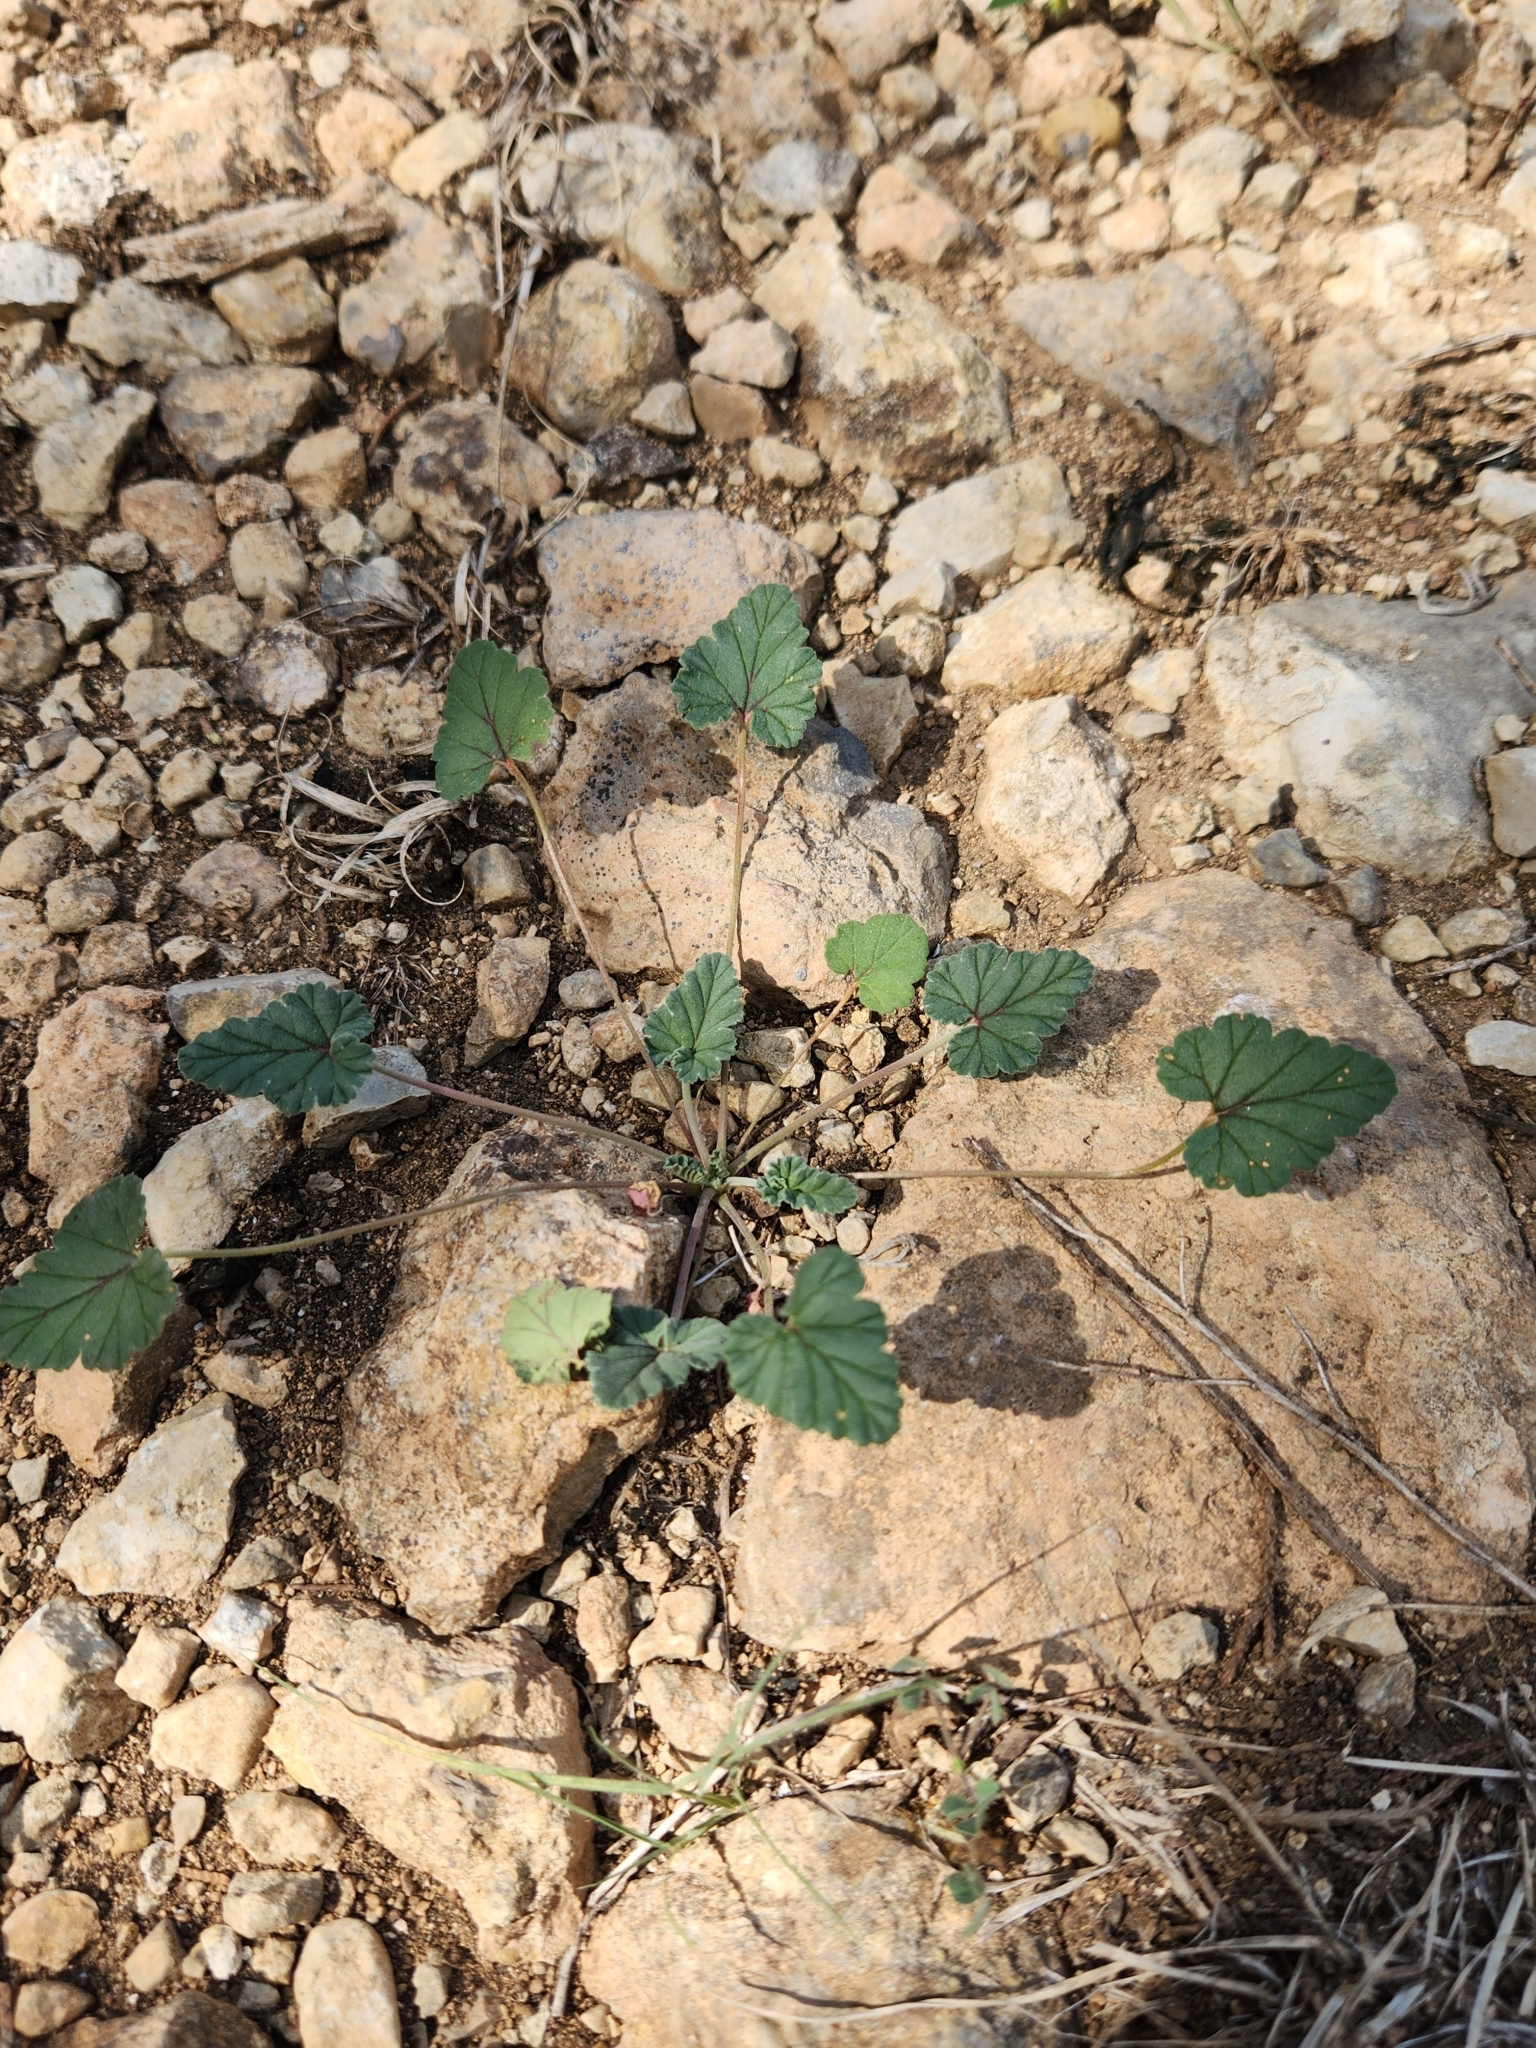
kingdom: Plantae
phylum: Tracheophyta
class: Magnoliopsida
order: Geraniales
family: Geraniaceae
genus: Erodium
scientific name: Erodium texanum
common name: Texas stork's-bill
